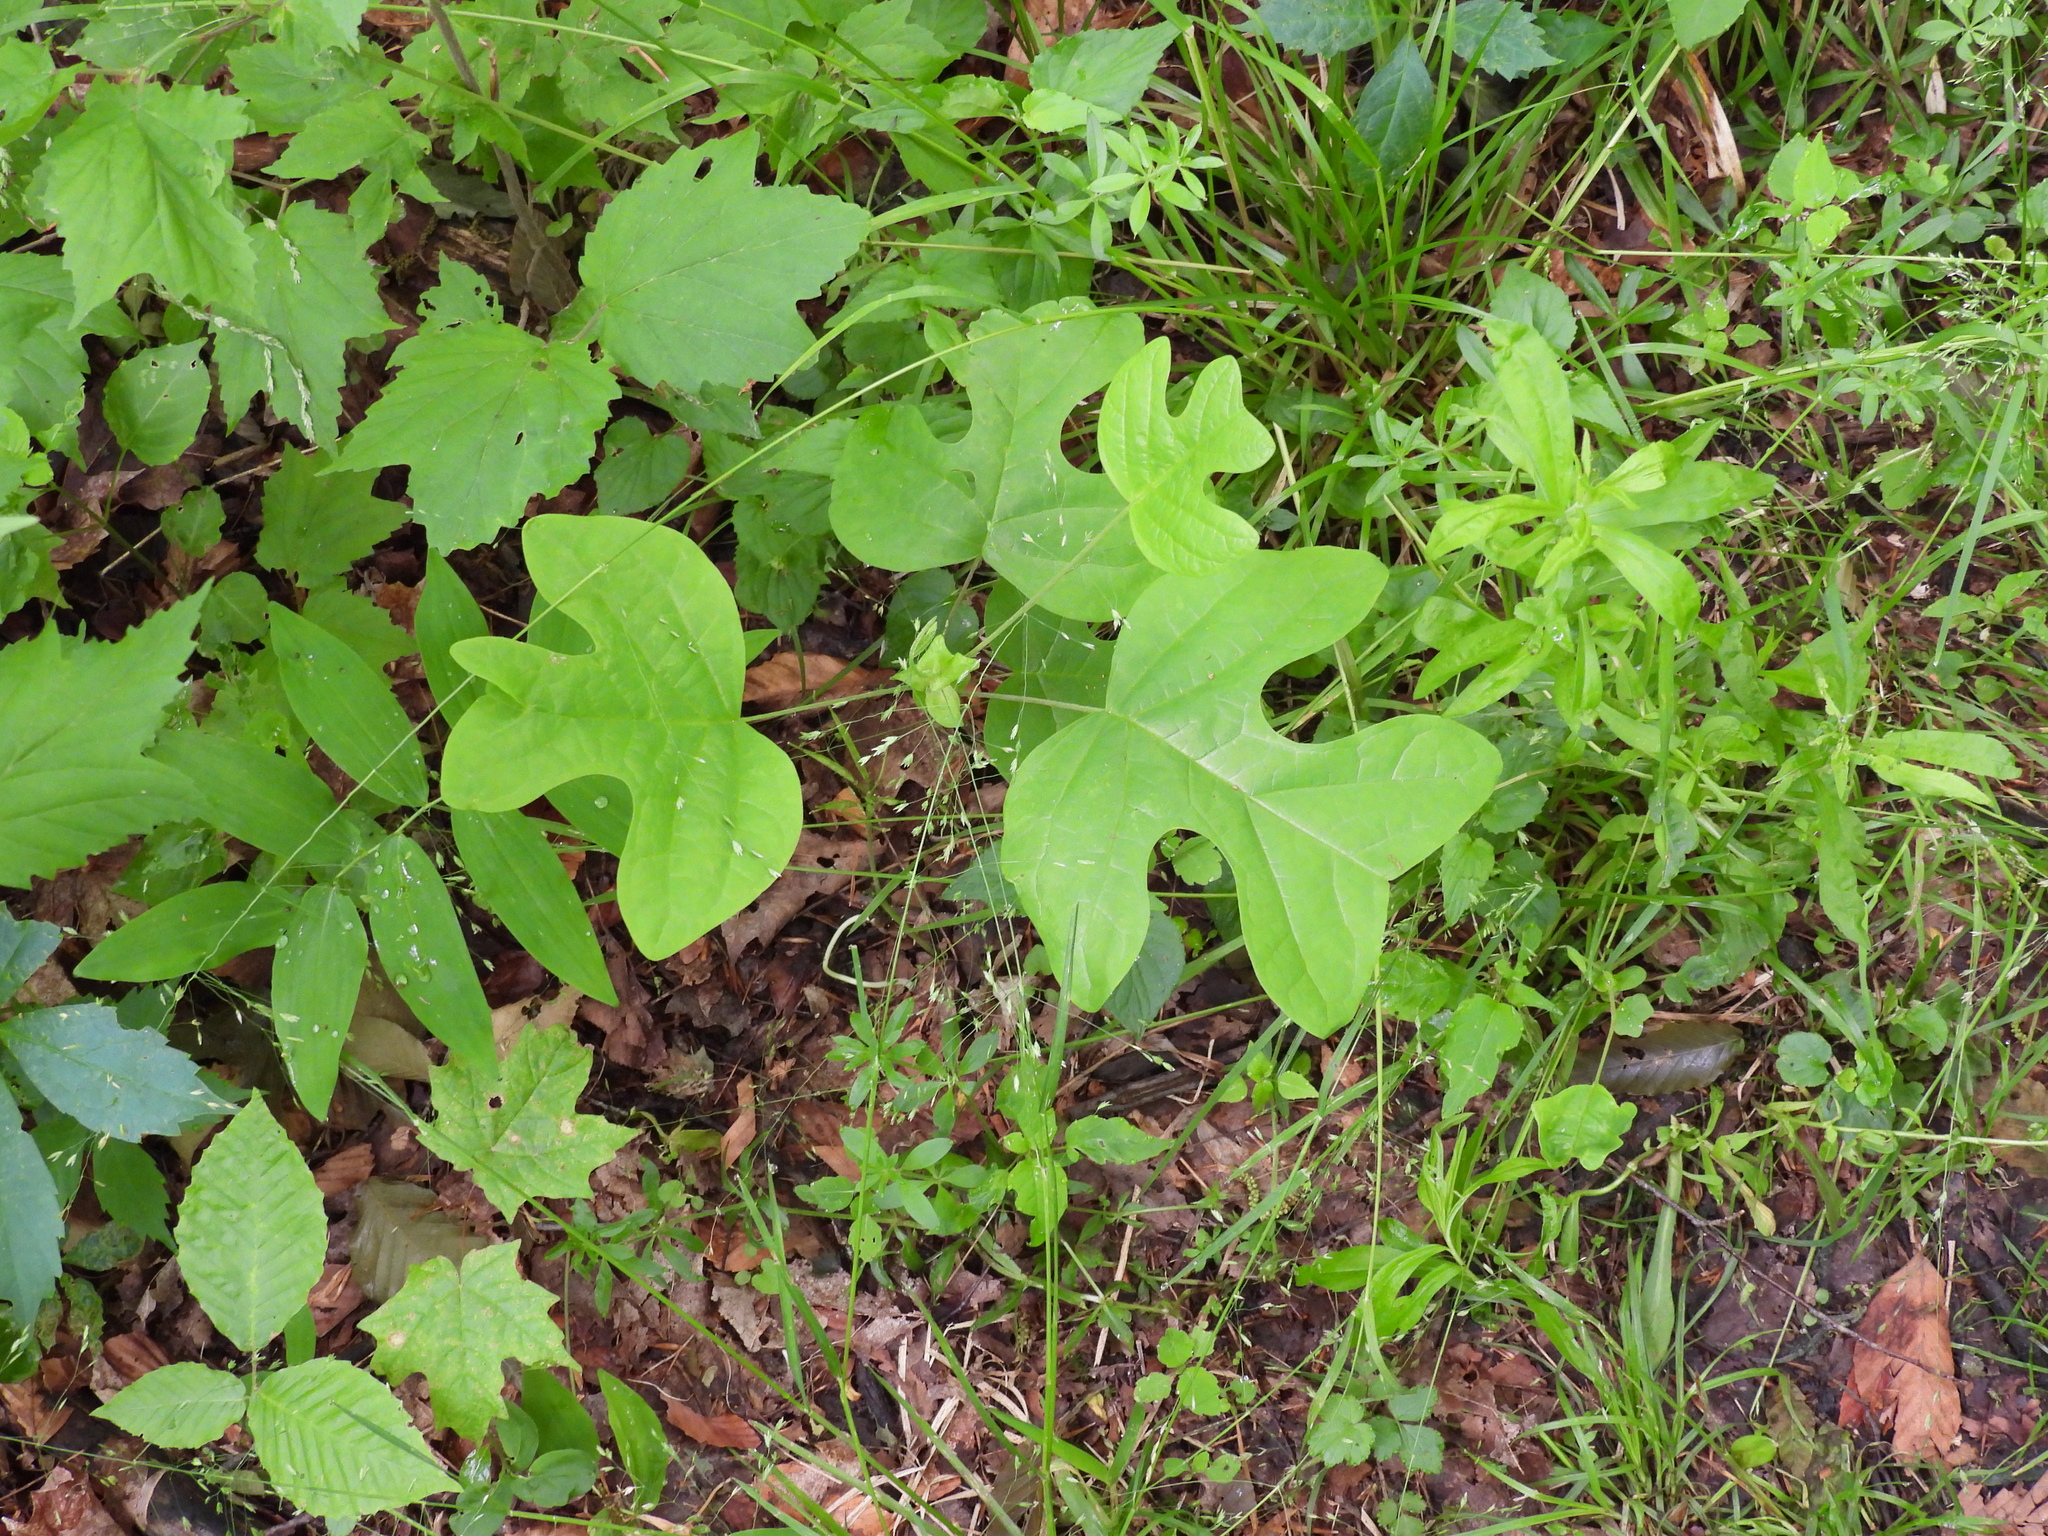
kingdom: Plantae
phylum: Tracheophyta
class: Magnoliopsida
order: Magnoliales
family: Magnoliaceae
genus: Liriodendron
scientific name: Liriodendron tulipifera
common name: Tulip tree
